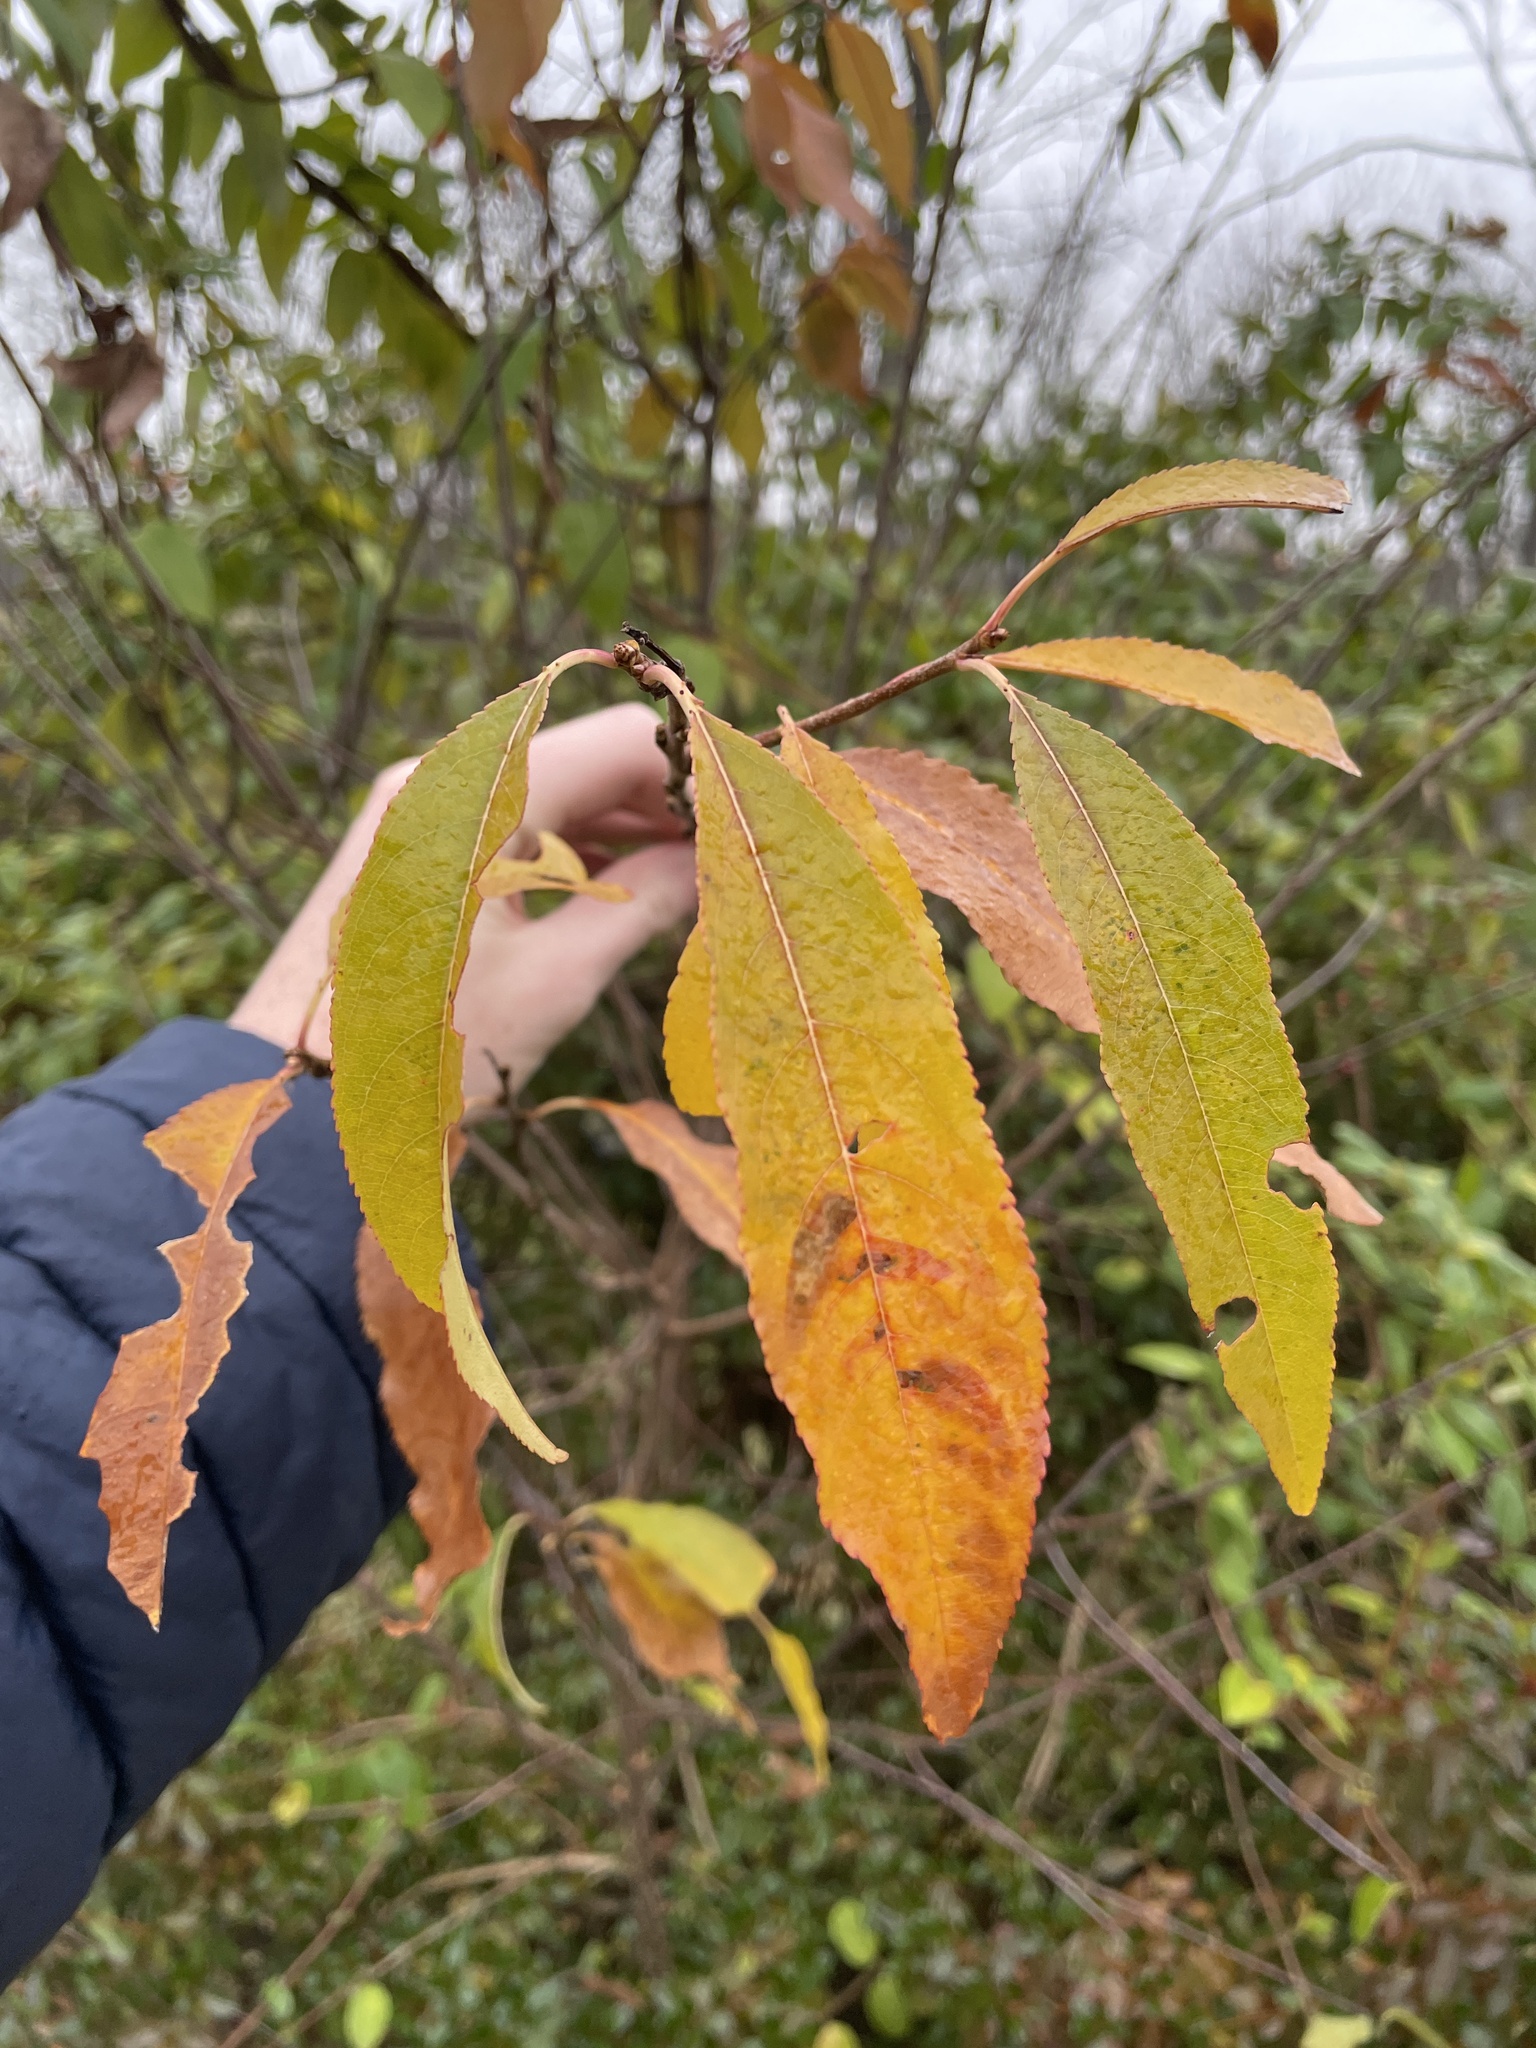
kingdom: Plantae
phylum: Tracheophyta
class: Magnoliopsida
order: Rosales
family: Rosaceae
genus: Prunus
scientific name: Prunus serotina
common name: Black cherry
